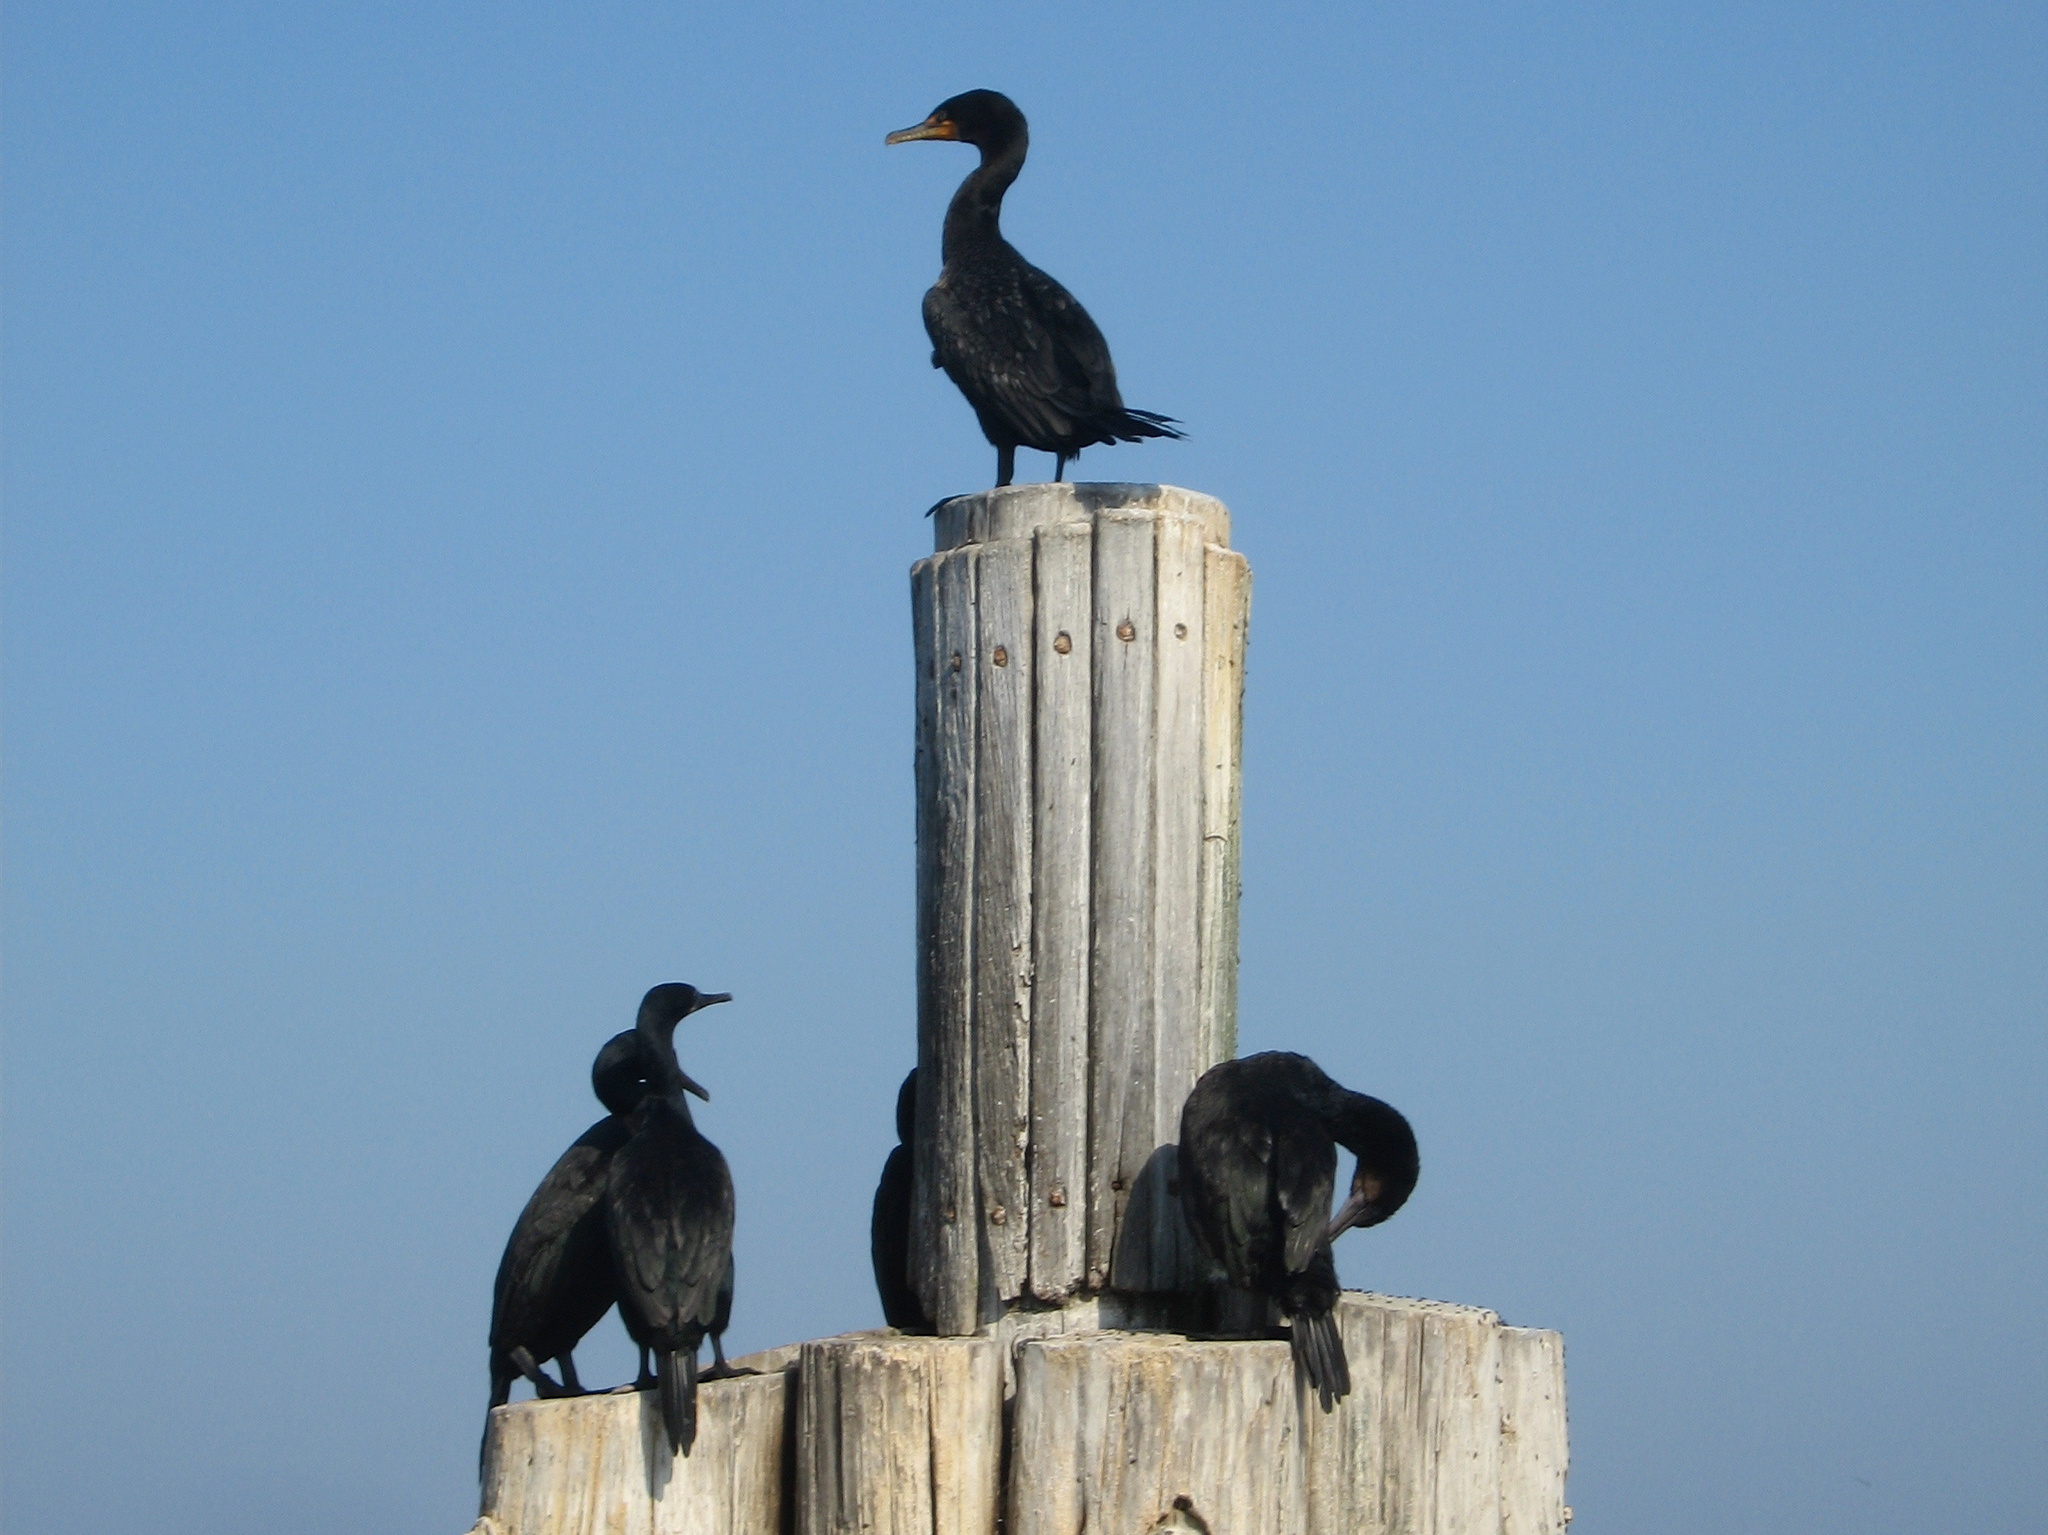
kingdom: Animalia
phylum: Chordata
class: Aves
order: Suliformes
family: Phalacrocoracidae
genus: Urile
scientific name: Urile penicillatus
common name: Brandt's cormorant
